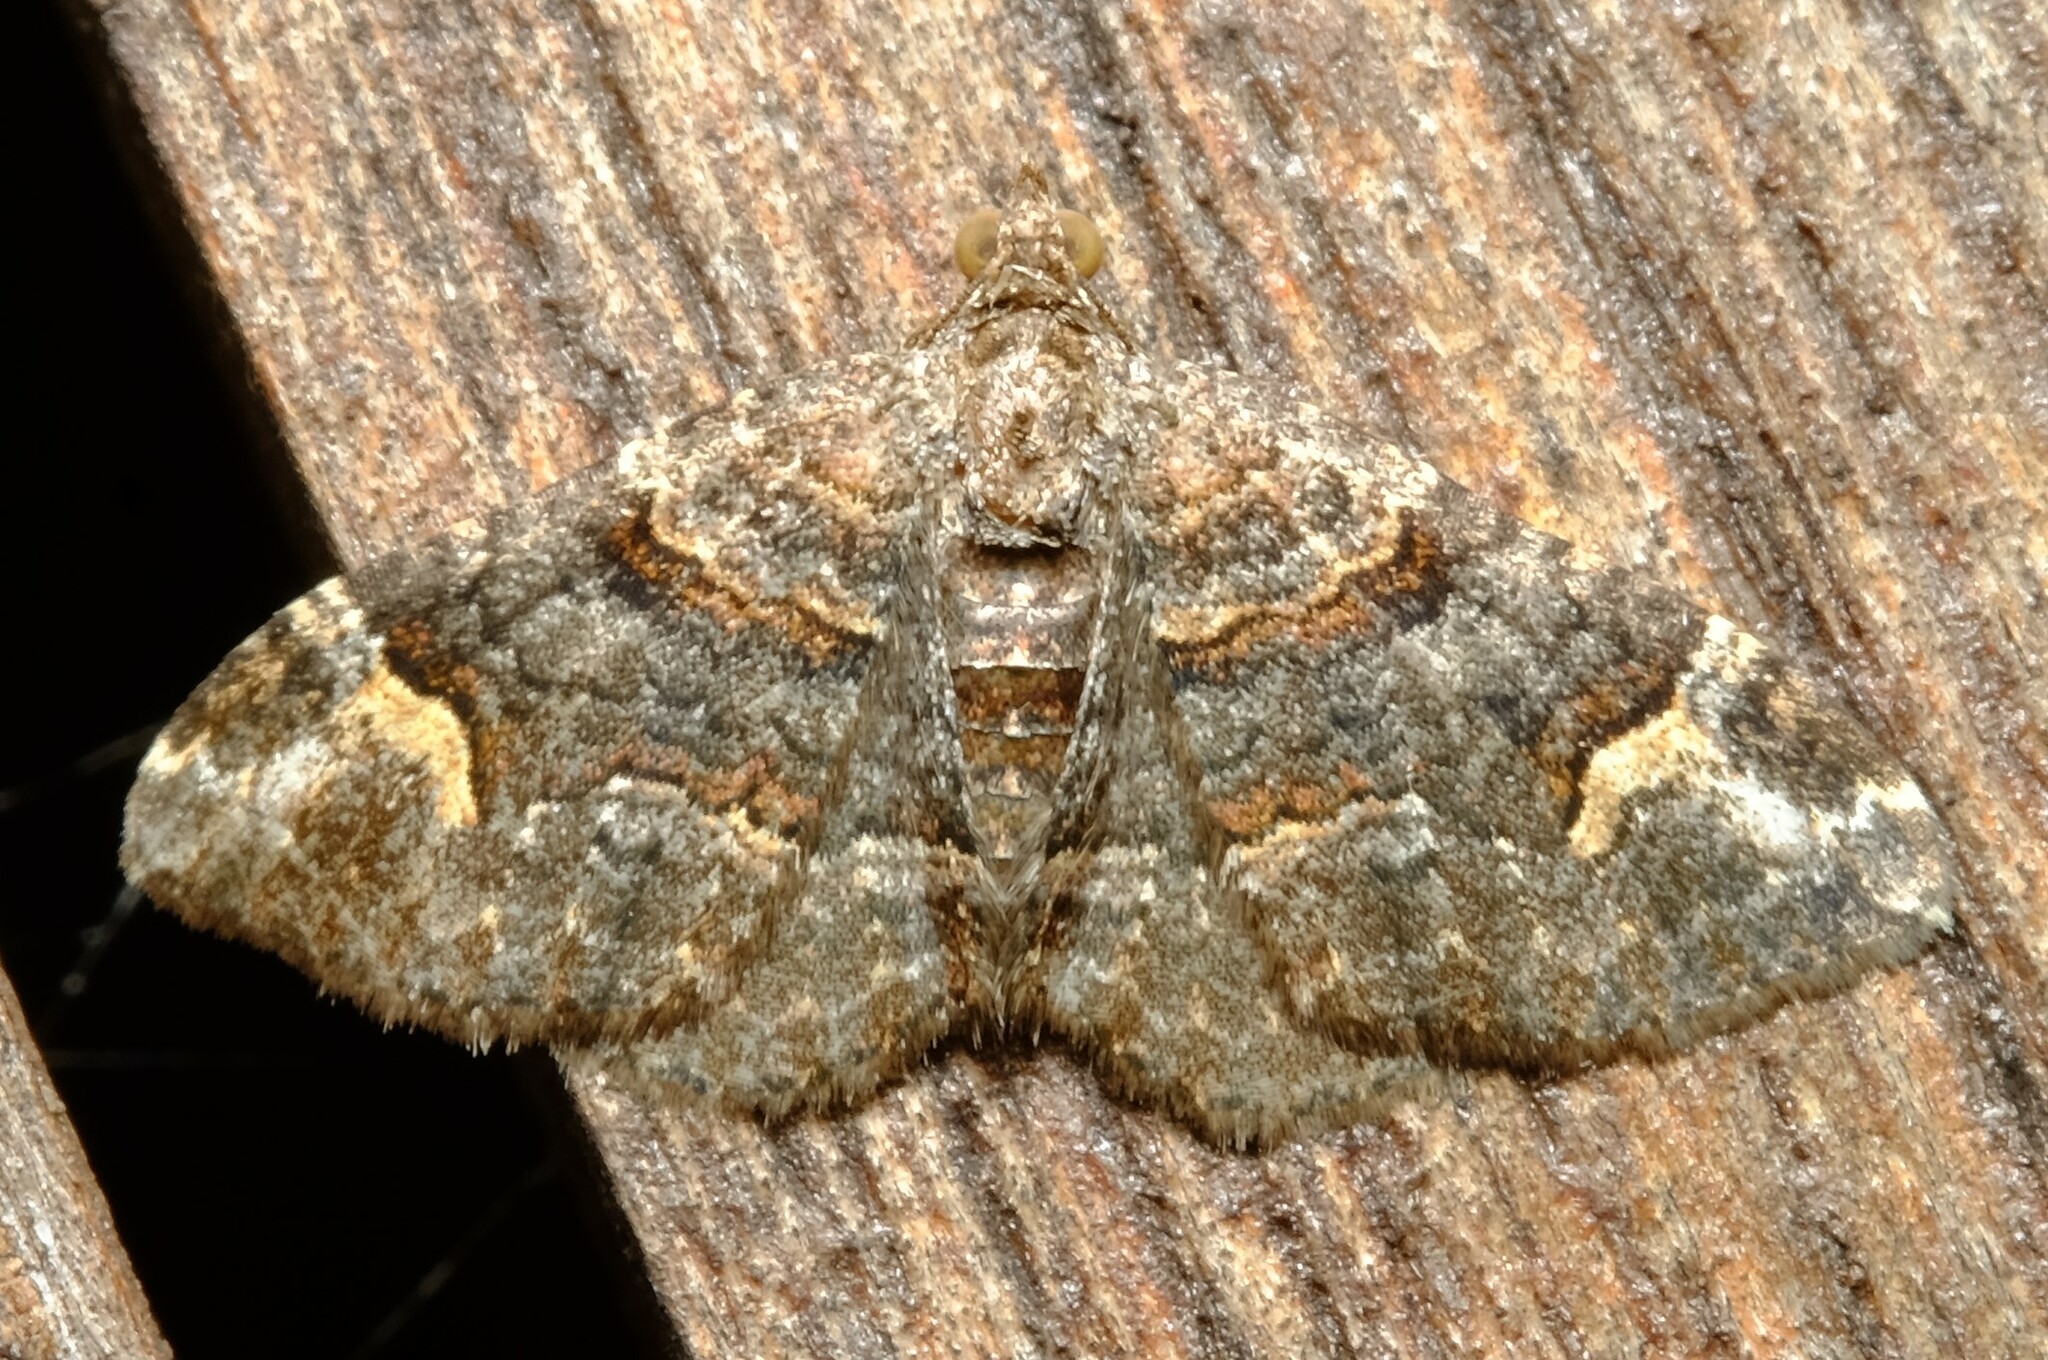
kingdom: Animalia
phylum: Arthropoda
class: Insecta
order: Lepidoptera
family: Geometridae
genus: Epyaxa
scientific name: Epyaxa sodaliata
